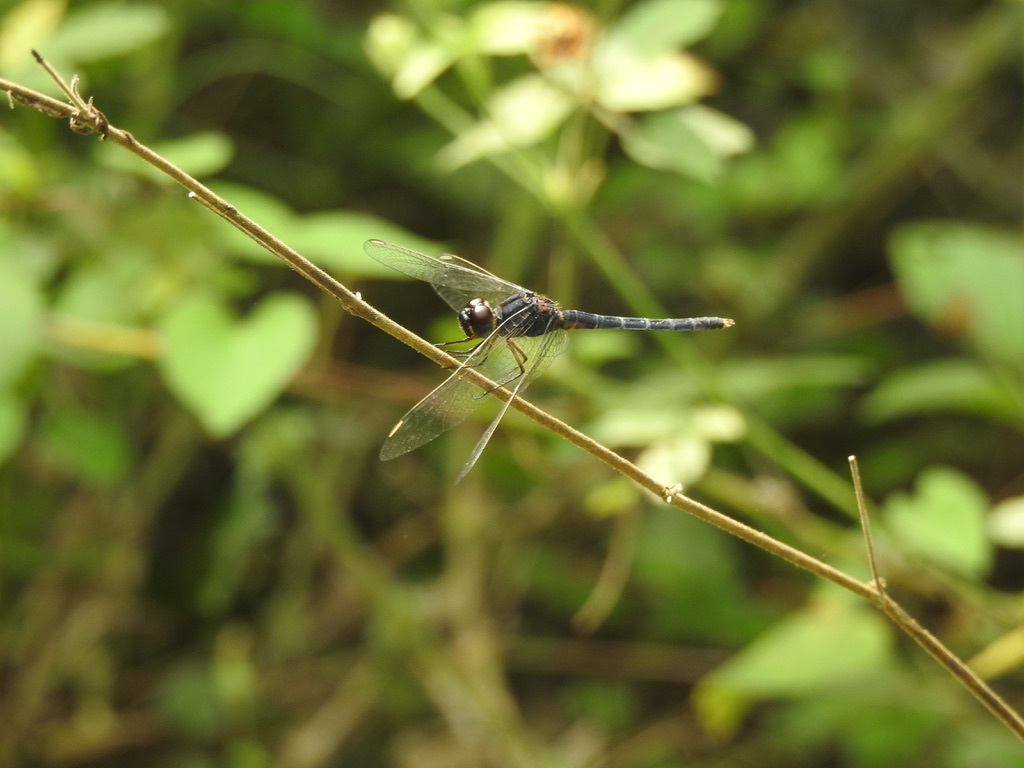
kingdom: Animalia
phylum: Arthropoda
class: Insecta
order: Odonata
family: Libellulidae
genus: Indothemis
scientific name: Indothemis carnatica
